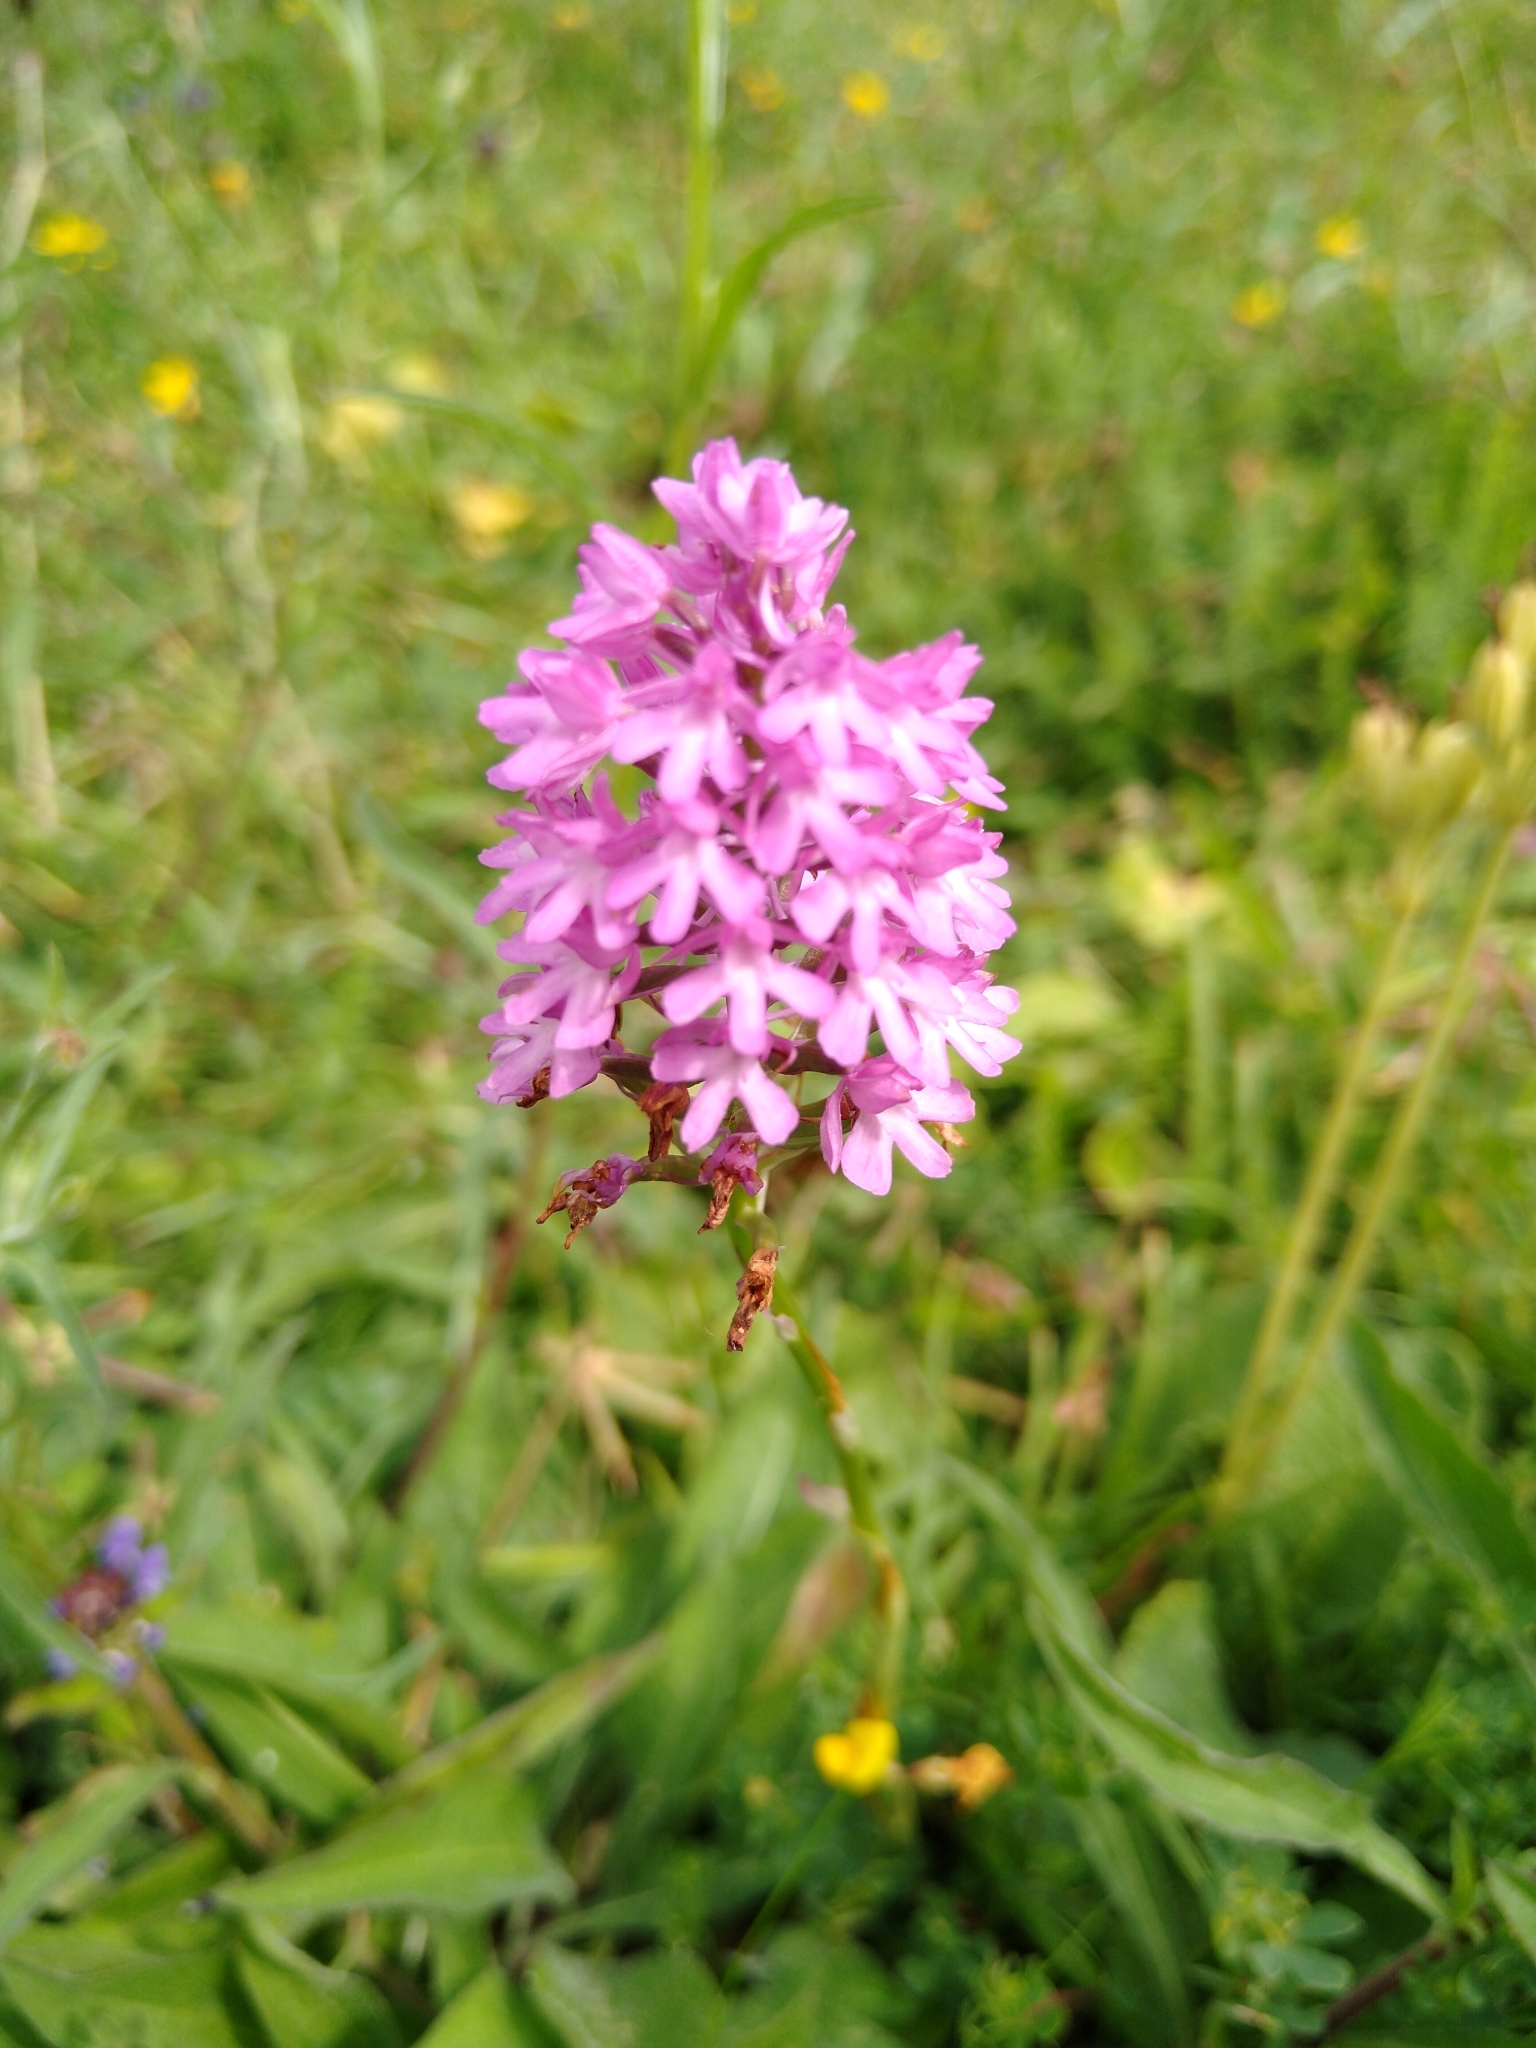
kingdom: Plantae
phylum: Tracheophyta
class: Liliopsida
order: Asparagales
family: Orchidaceae
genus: Anacamptis
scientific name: Anacamptis pyramidalis
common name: Pyramidal orchid
